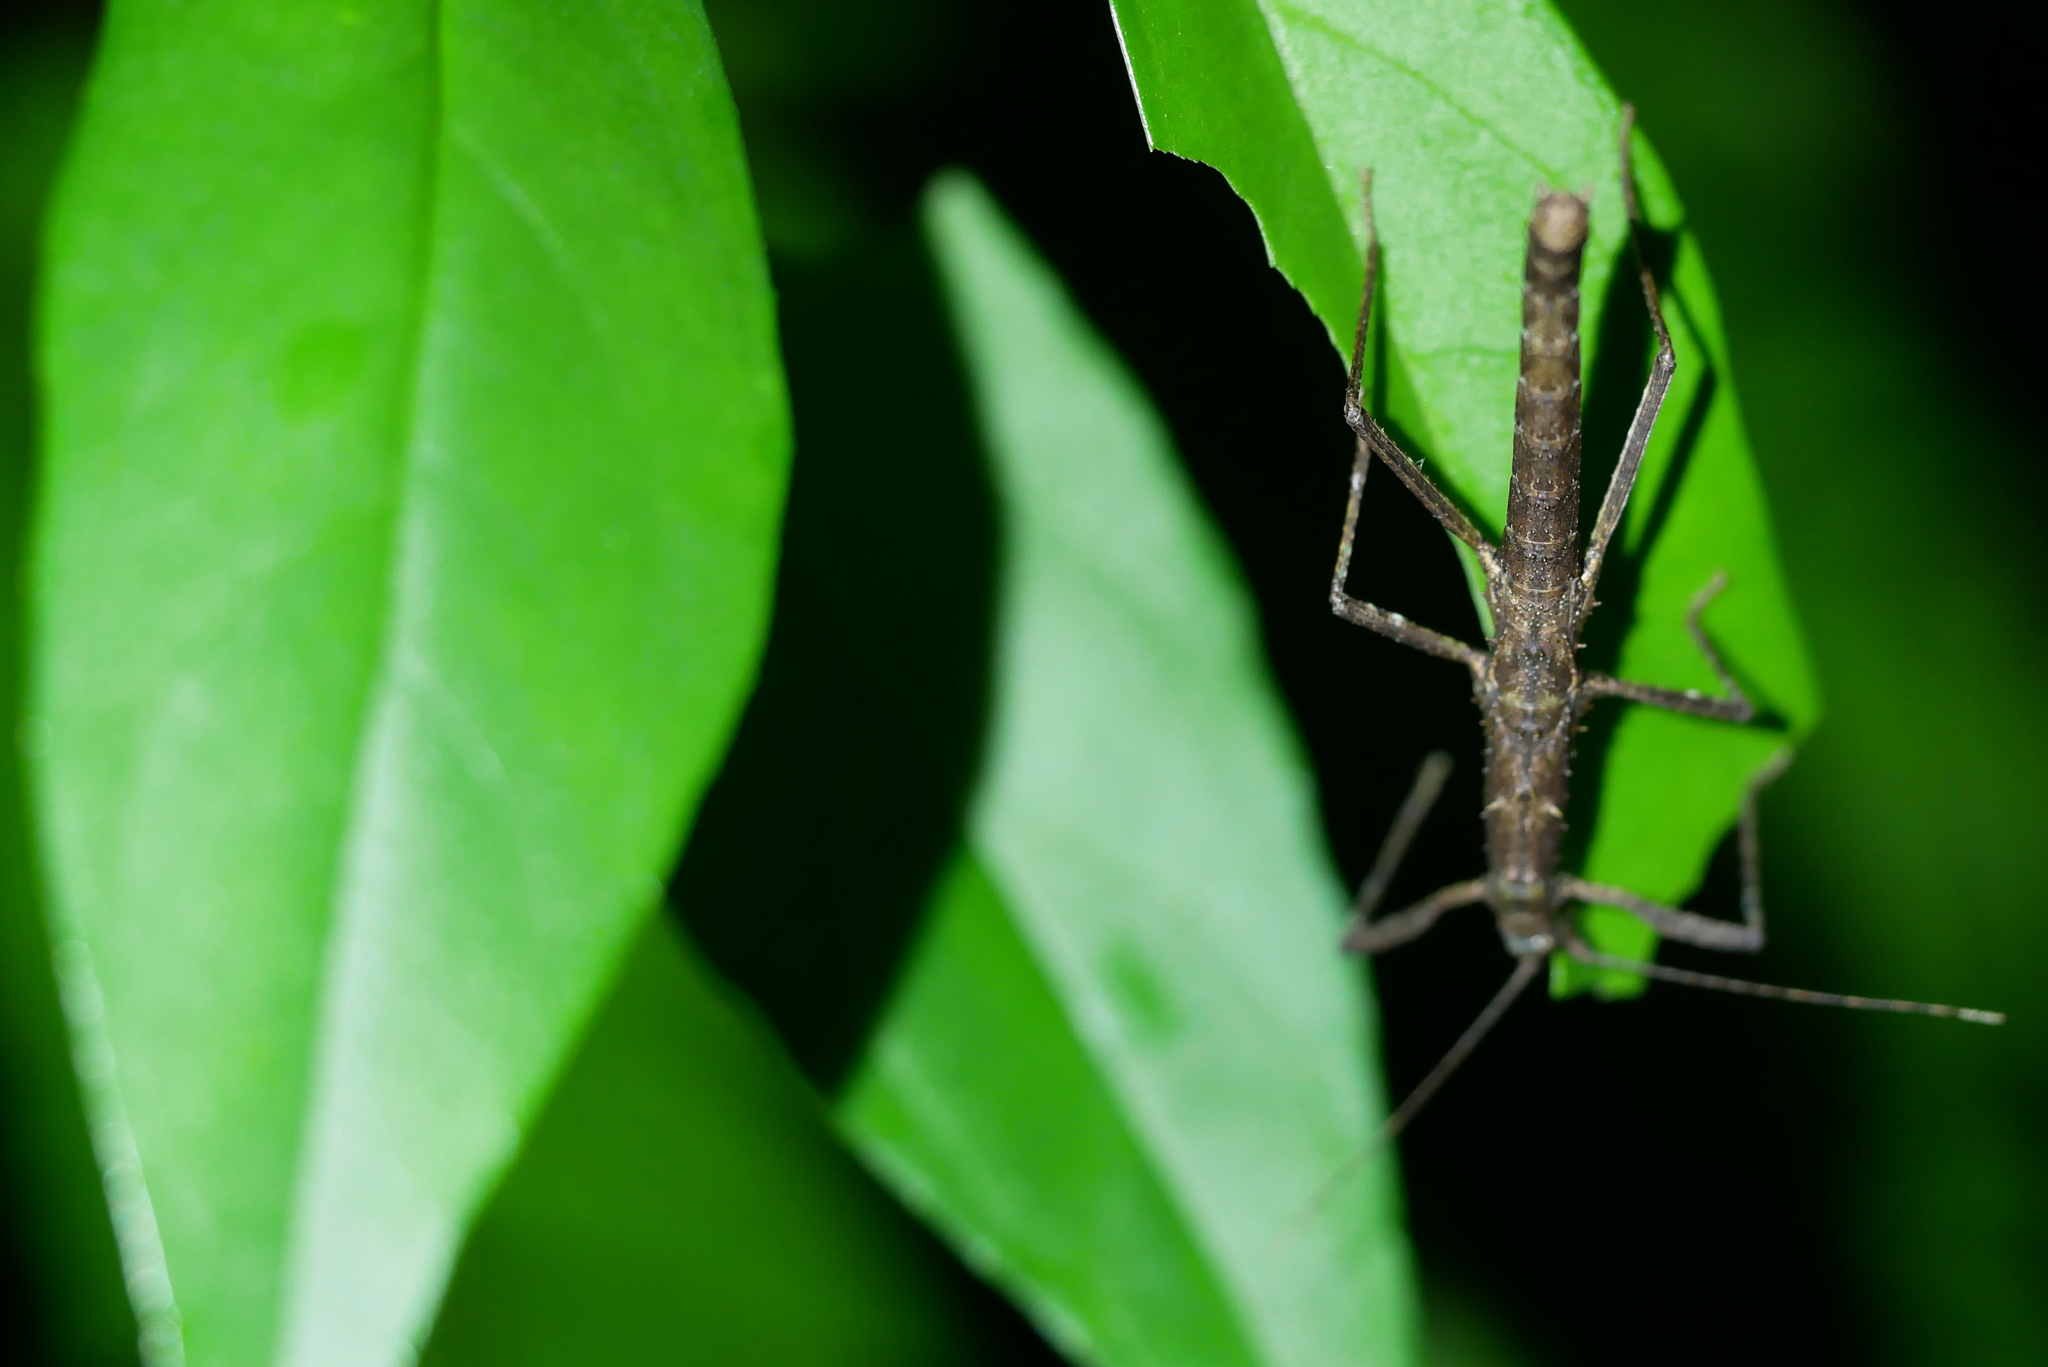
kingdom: Animalia
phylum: Arthropoda
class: Insecta
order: Phasmida
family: Lonchodidae
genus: Neohirasea
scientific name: Neohirasea japonica
